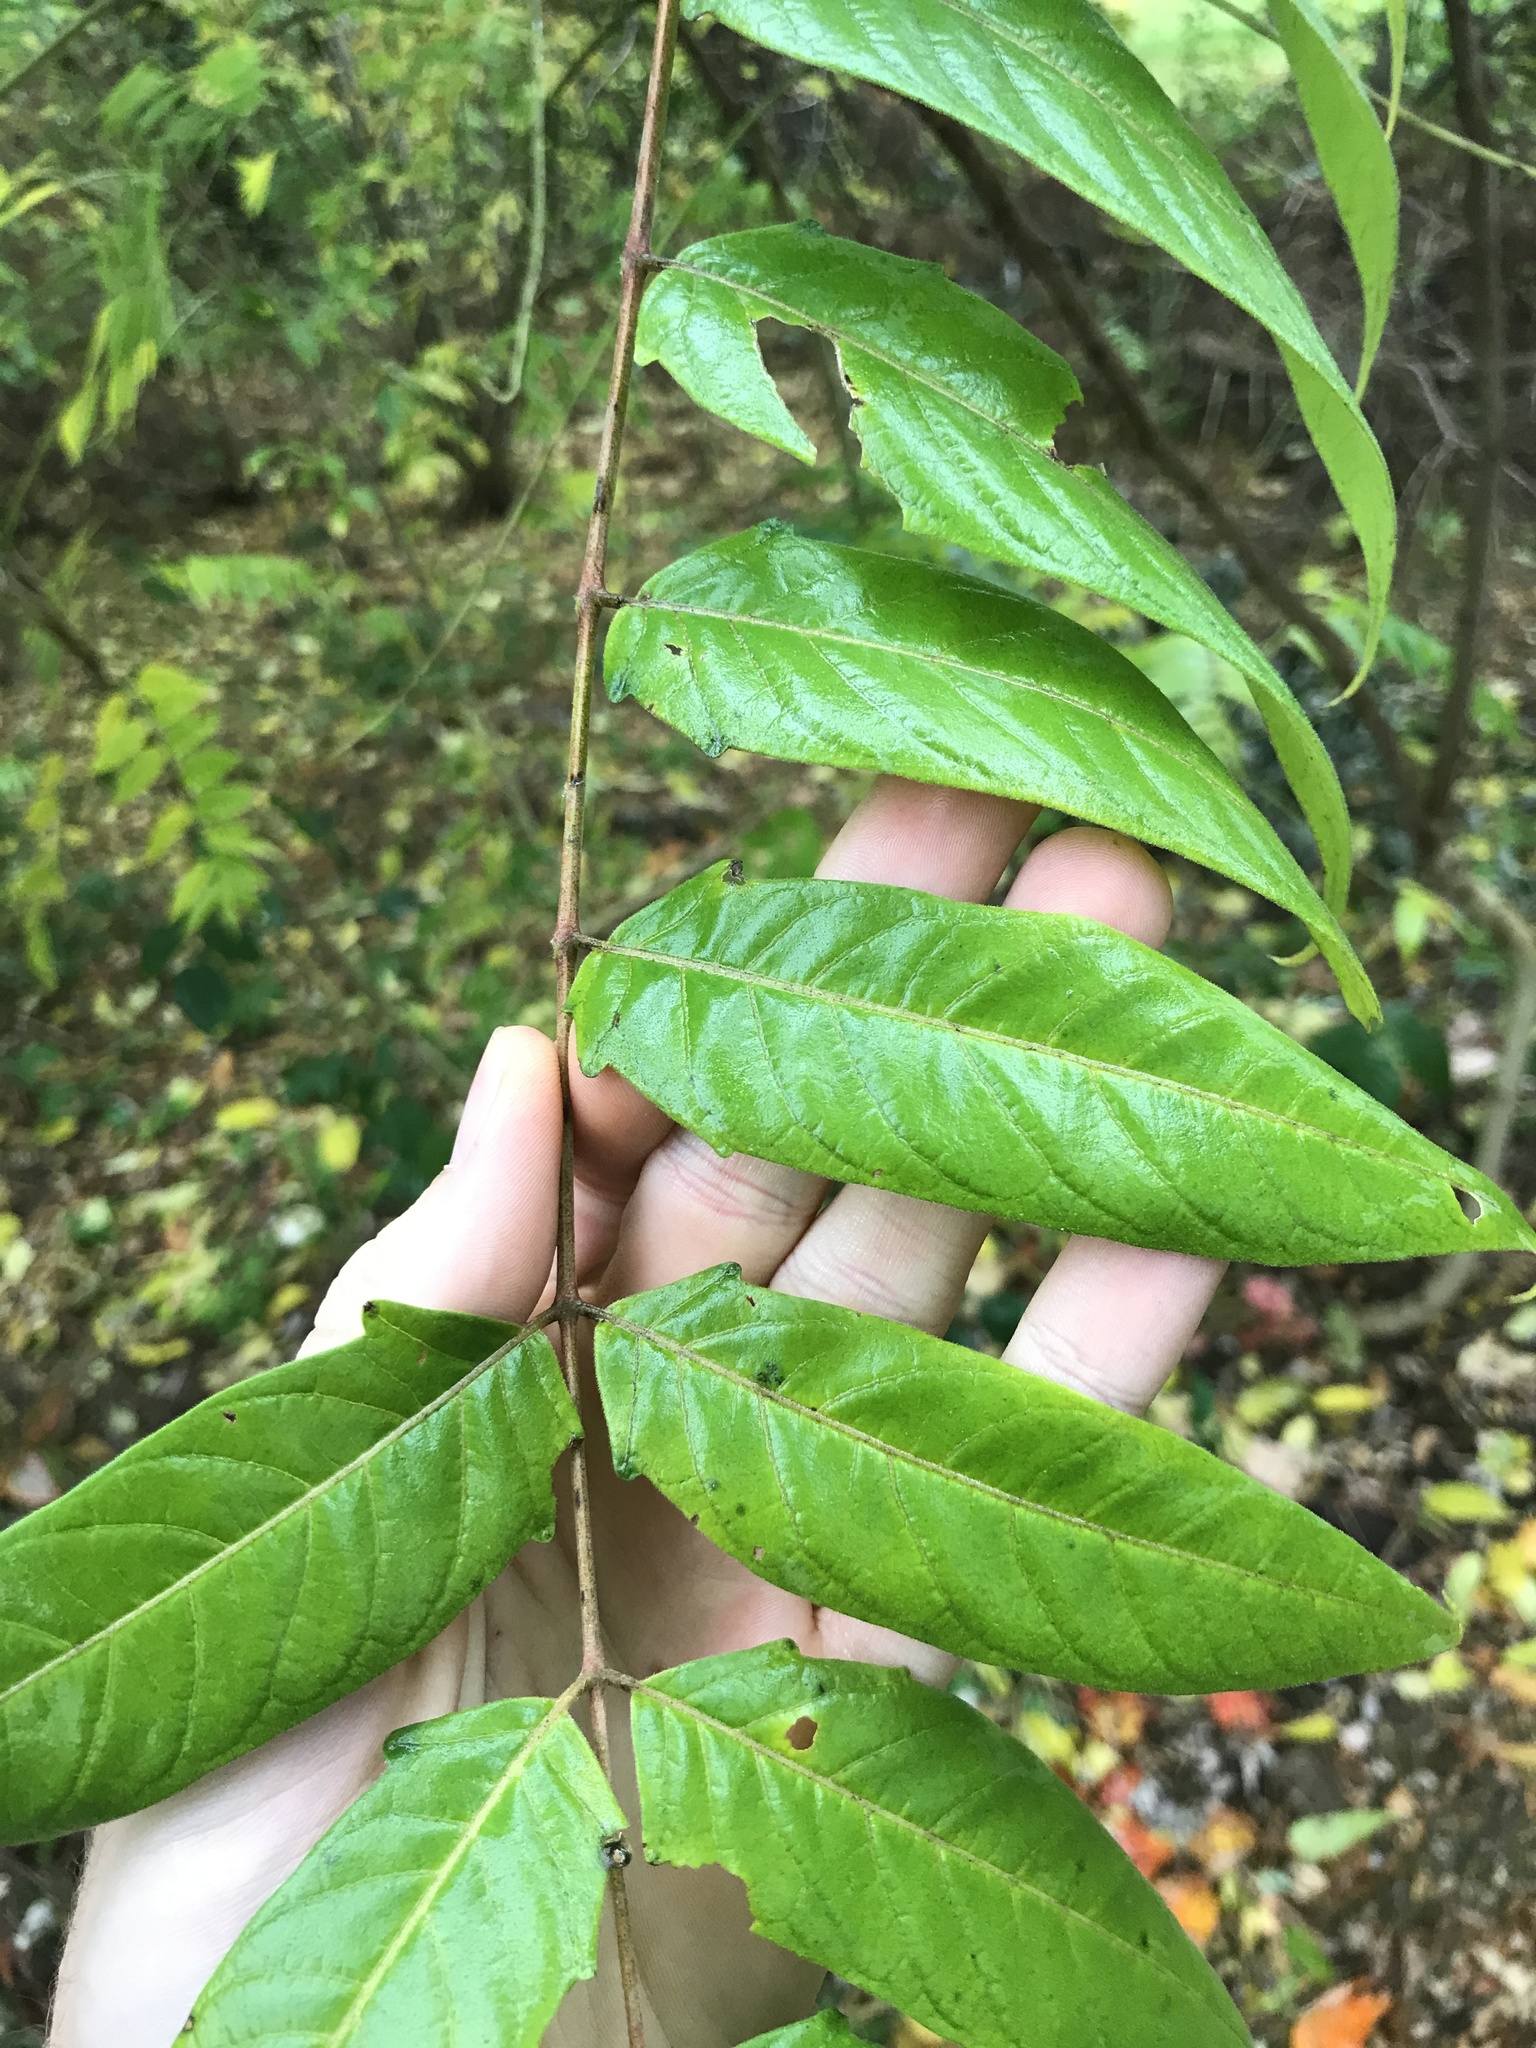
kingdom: Plantae
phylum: Tracheophyta
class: Magnoliopsida
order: Sapindales
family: Simaroubaceae
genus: Ailanthus
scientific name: Ailanthus altissima
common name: Tree-of-heaven
